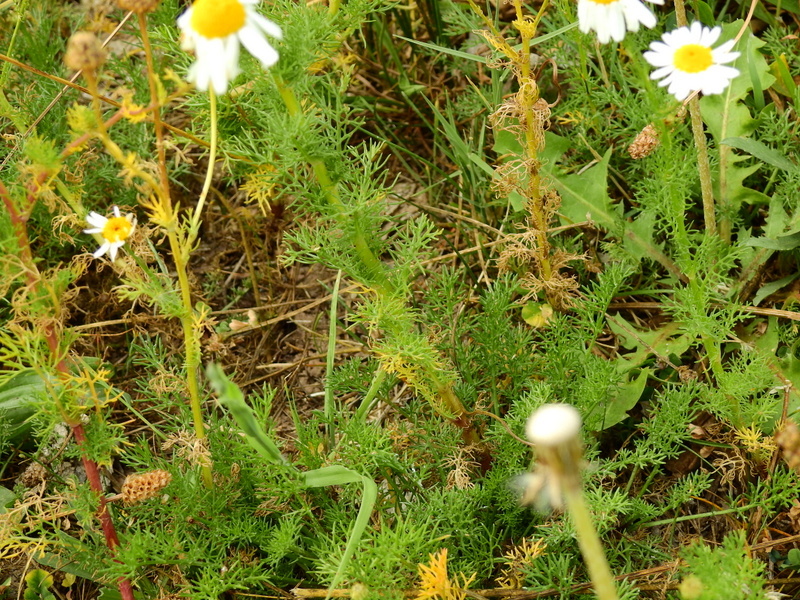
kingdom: Plantae
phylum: Tracheophyta
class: Magnoliopsida
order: Asterales
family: Asteraceae
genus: Matricaria
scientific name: Matricaria chamomilla
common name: Scented mayweed
